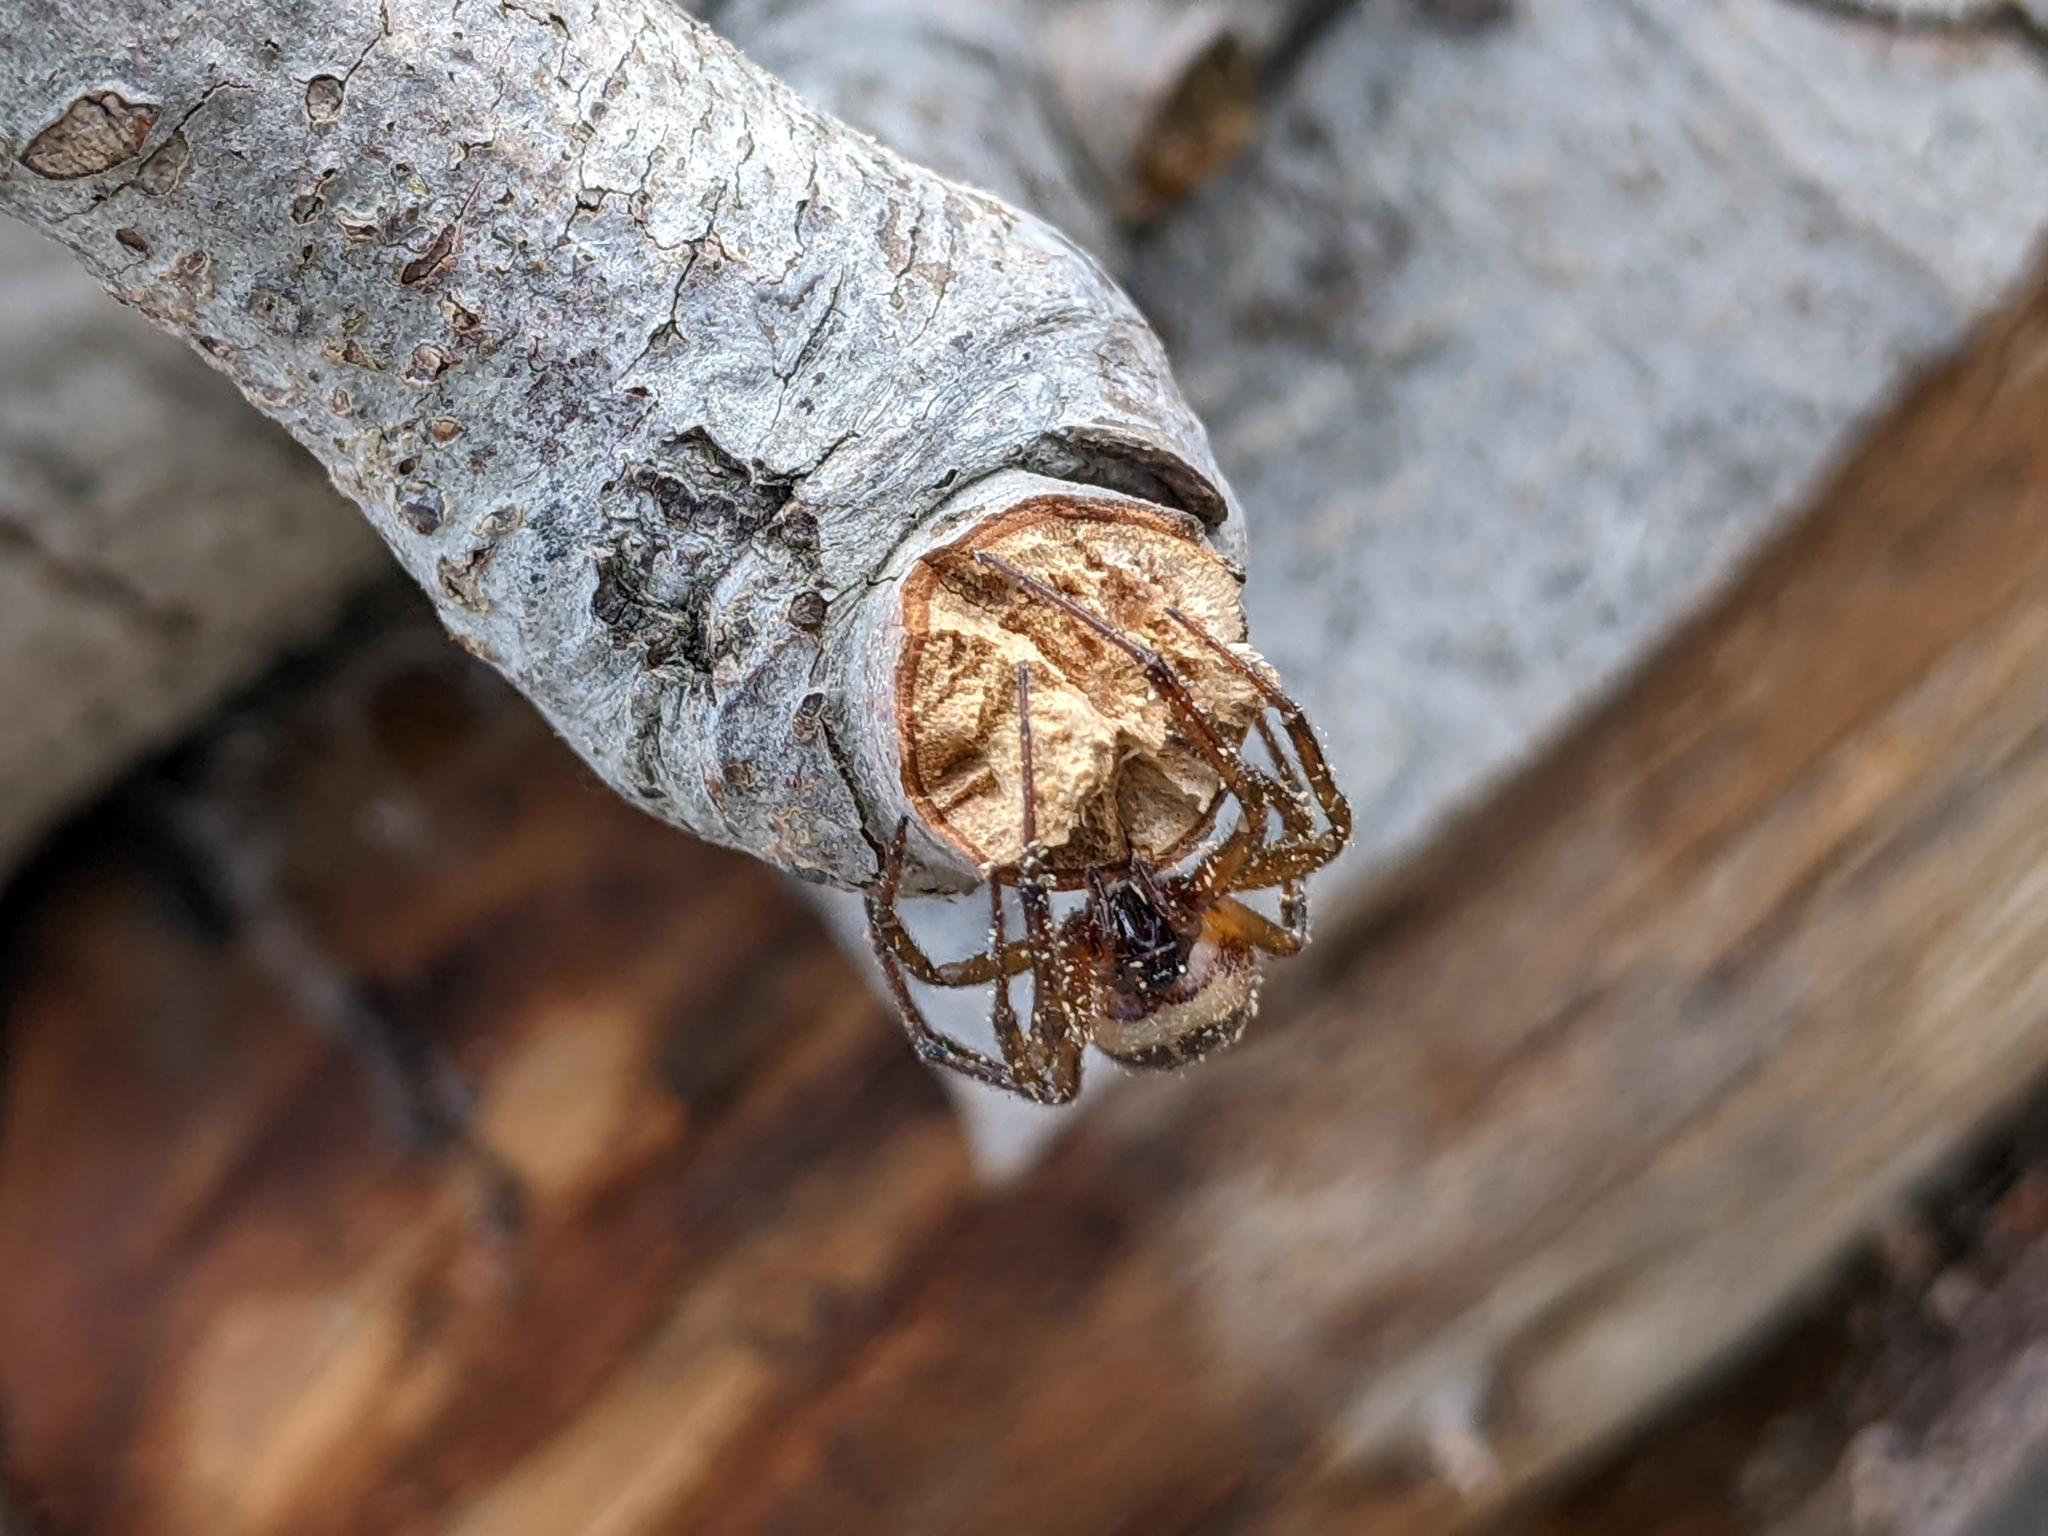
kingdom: Animalia
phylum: Arthropoda
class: Arachnida
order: Araneae
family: Theridiidae
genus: Steatoda
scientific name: Steatoda nobilis
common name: Cobweb weaver
